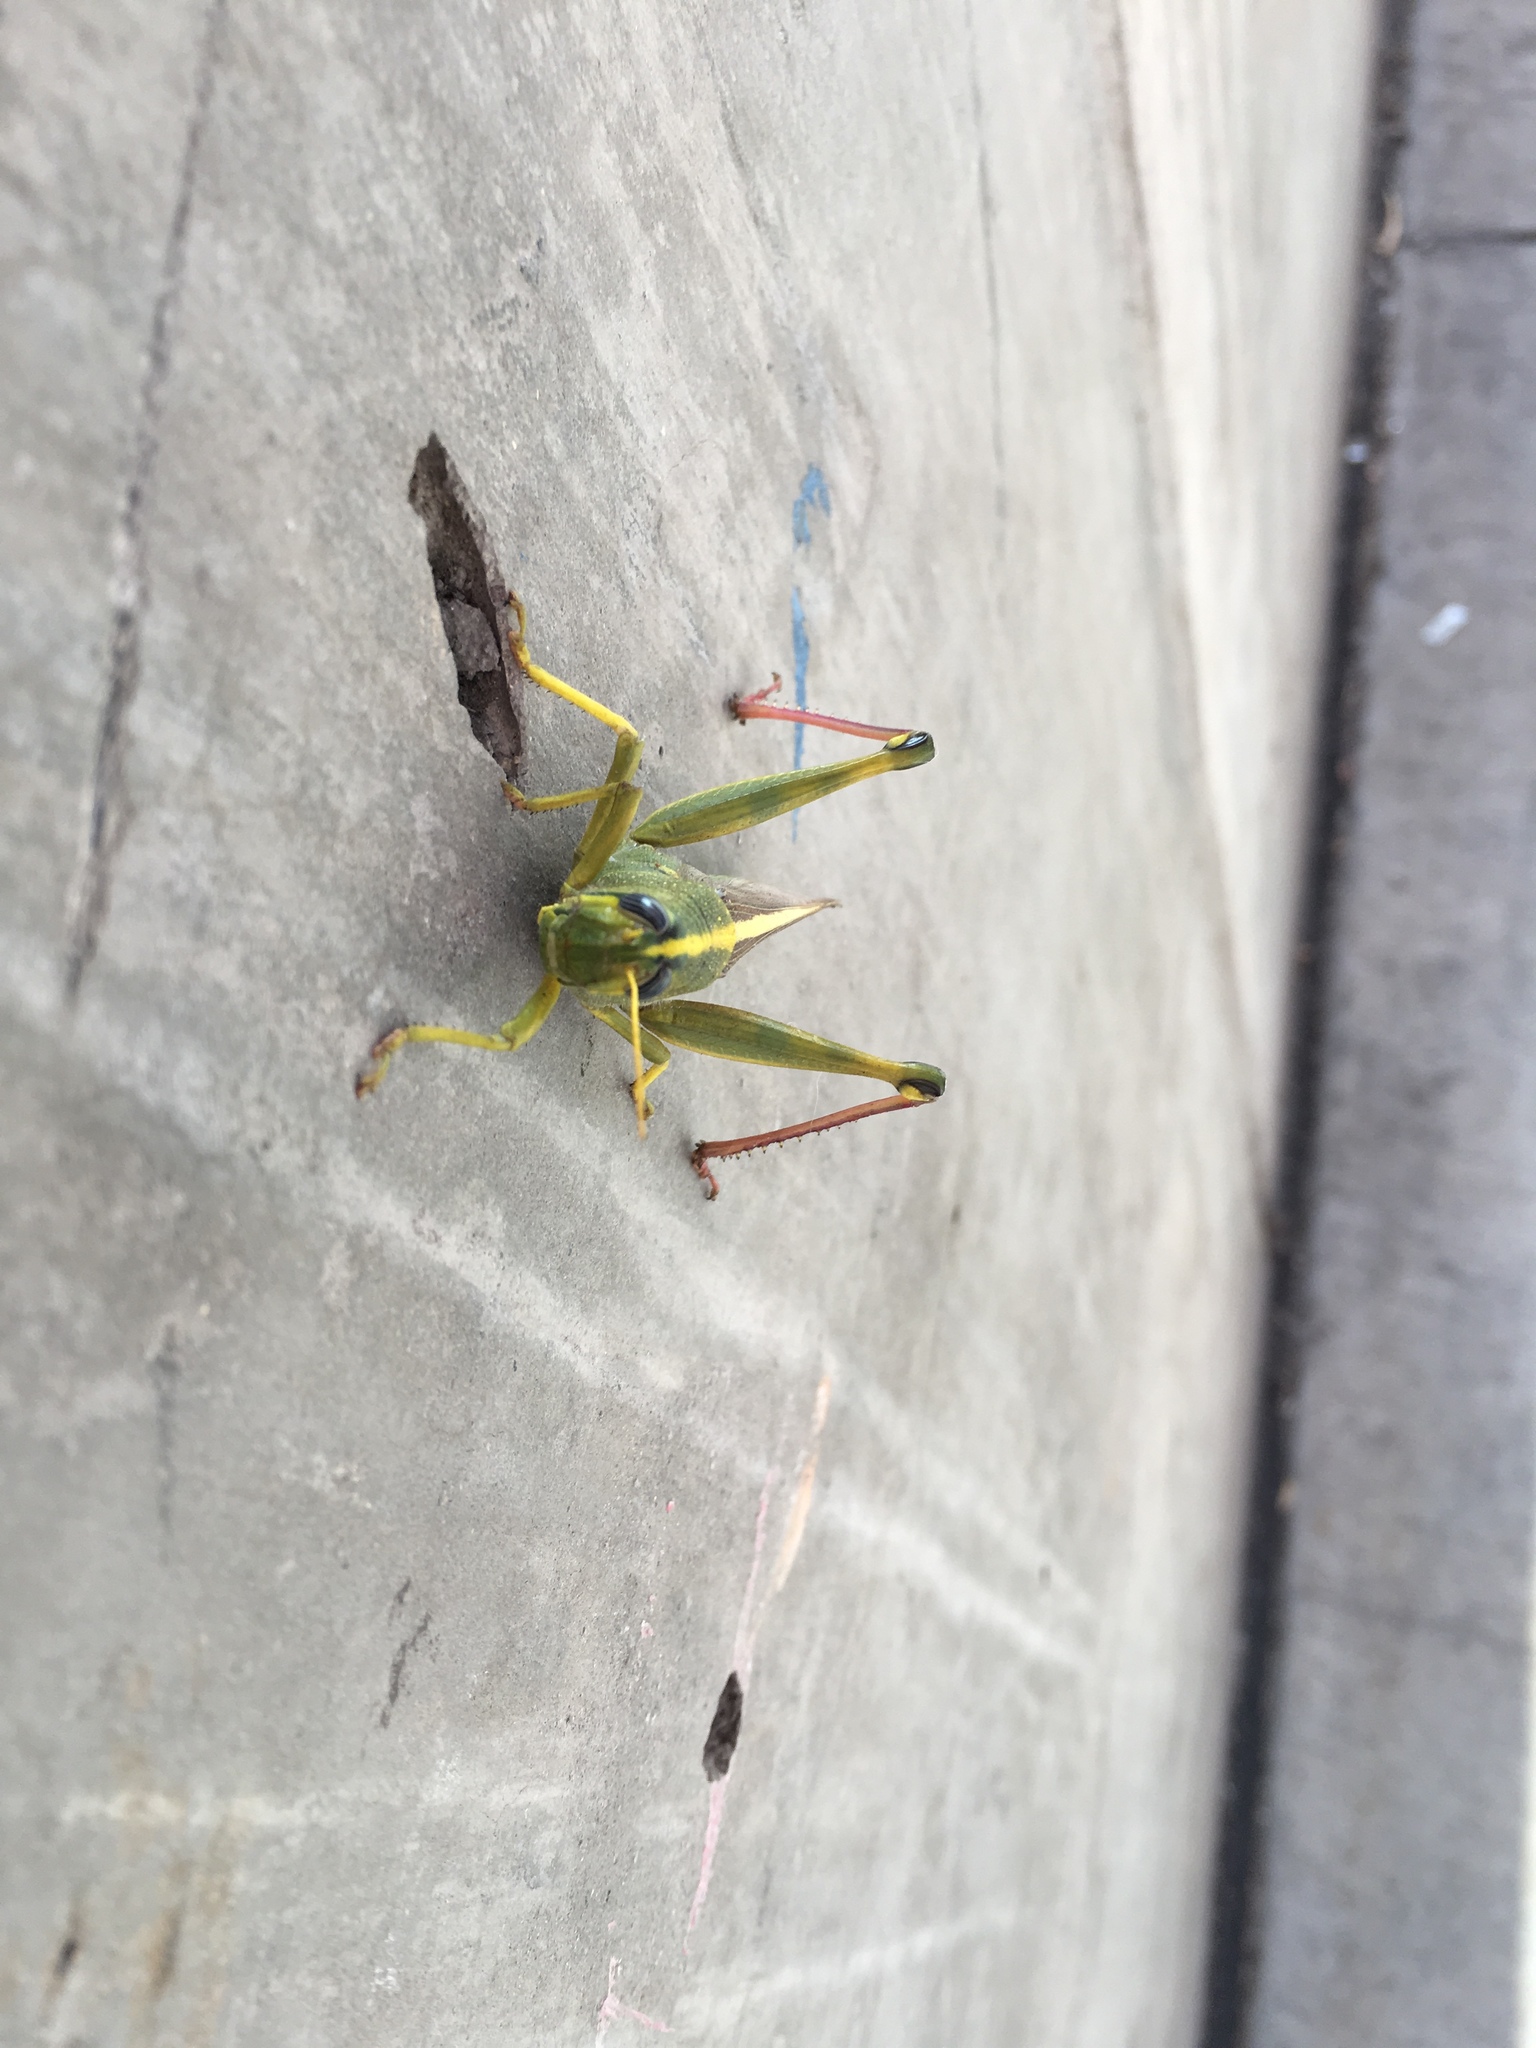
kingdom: Animalia
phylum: Arthropoda
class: Insecta
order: Orthoptera
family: Acrididae
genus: Schistocerca
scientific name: Schistocerca lineata
